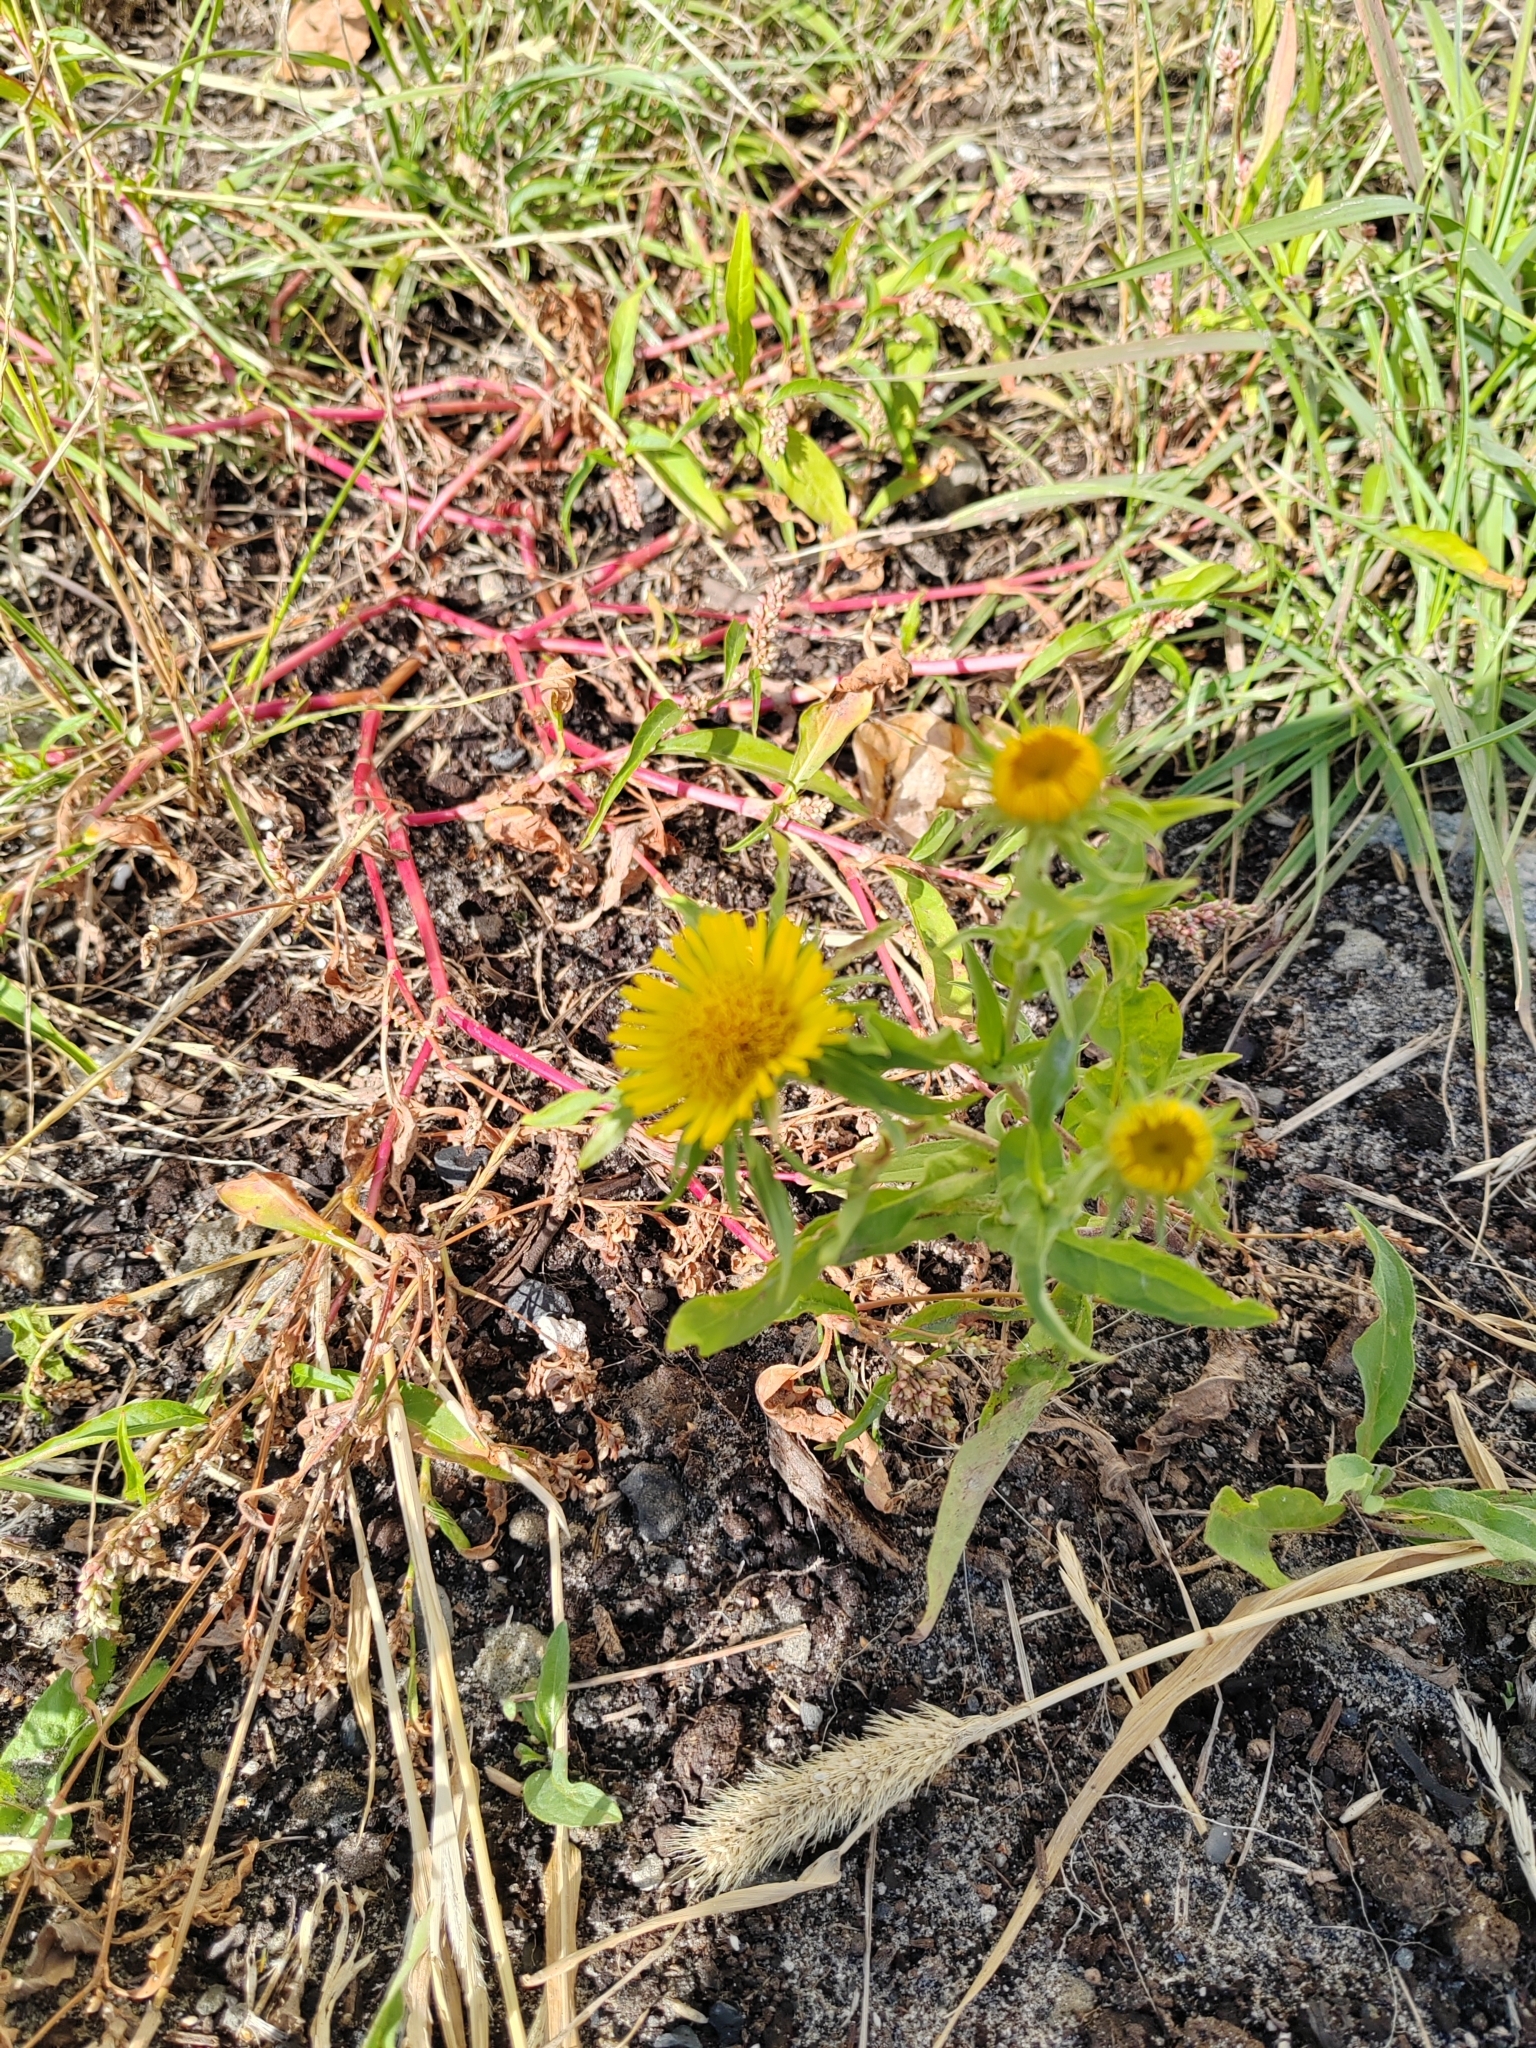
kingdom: Plantae
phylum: Tracheophyta
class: Magnoliopsida
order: Asterales
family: Asteraceae
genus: Pentanema
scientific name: Pentanema britannicum
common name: British elecampane
